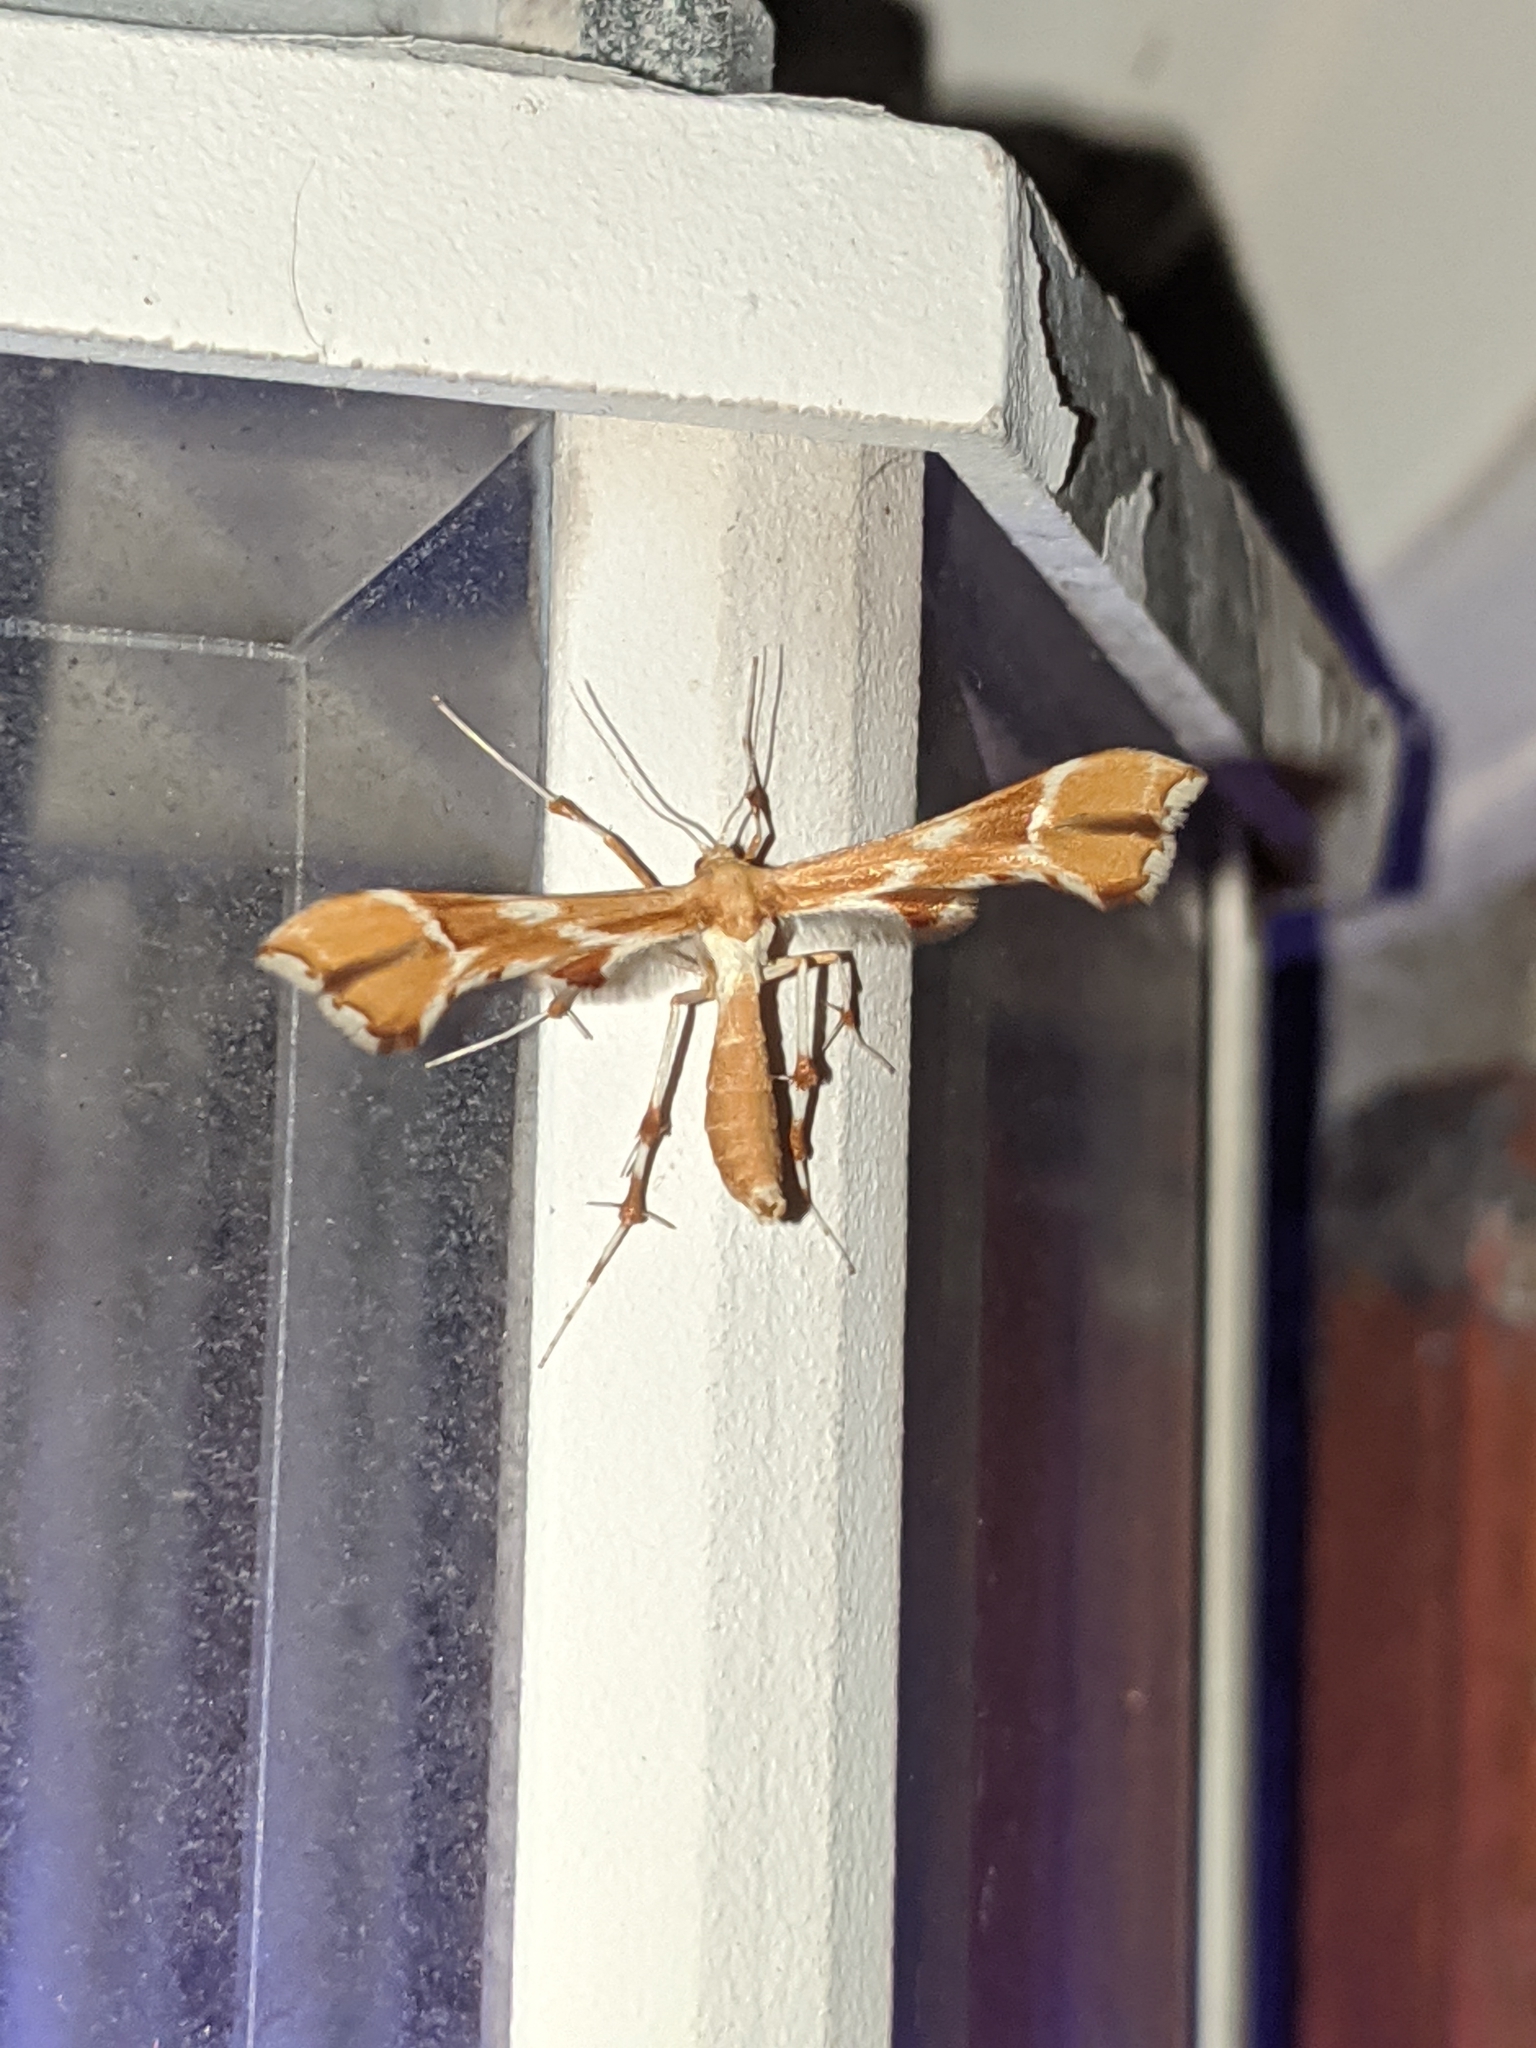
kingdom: Animalia
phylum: Arthropoda
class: Insecta
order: Lepidoptera
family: Pterophoridae
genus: Cnaemidophorus
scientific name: Cnaemidophorus rhododactyla
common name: Rose plume
